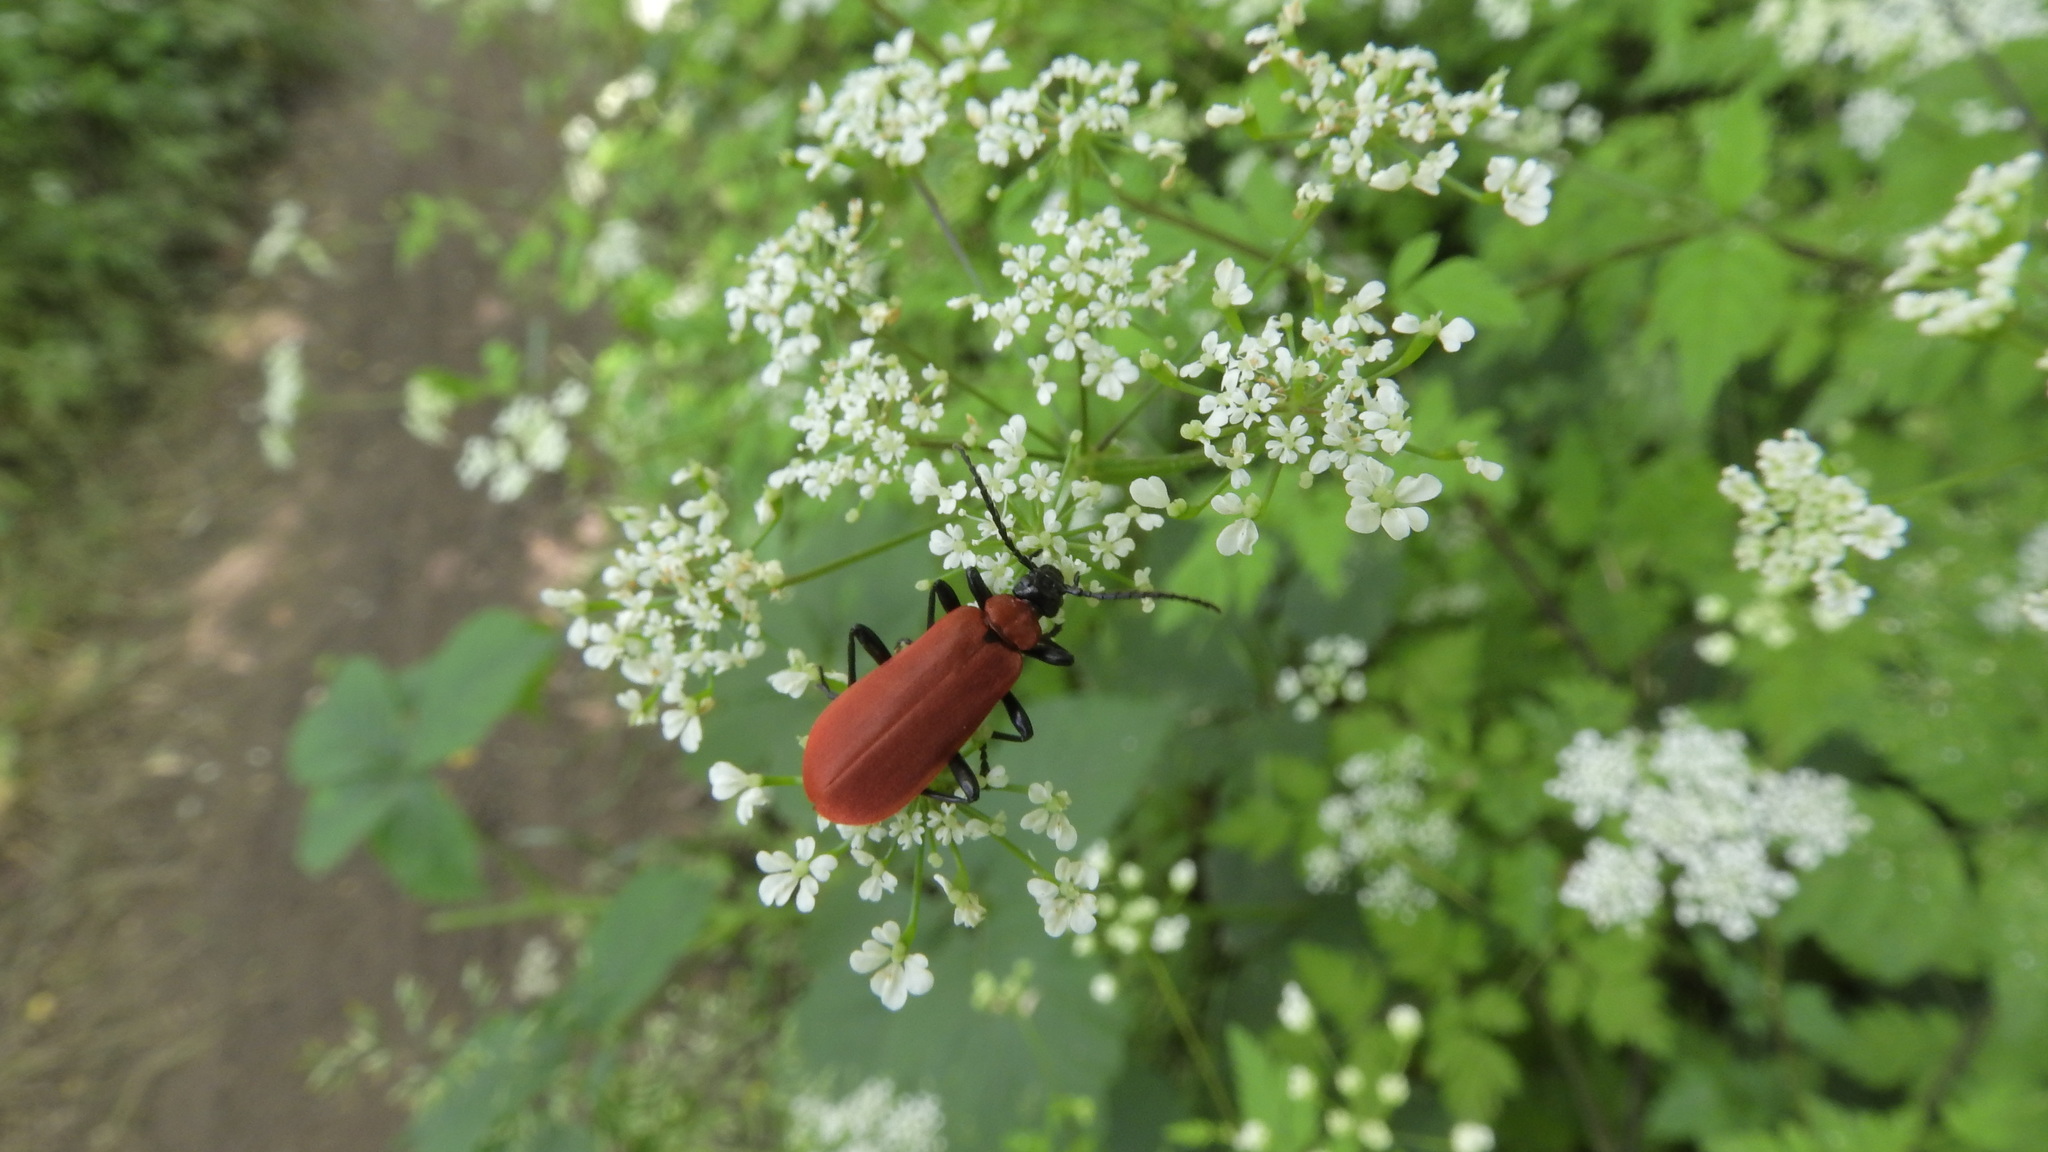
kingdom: Animalia
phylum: Arthropoda
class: Insecta
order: Coleoptera
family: Pyrochroidae
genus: Pyrochroa
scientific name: Pyrochroa coccinea
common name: Black-headed cardinal beetle
